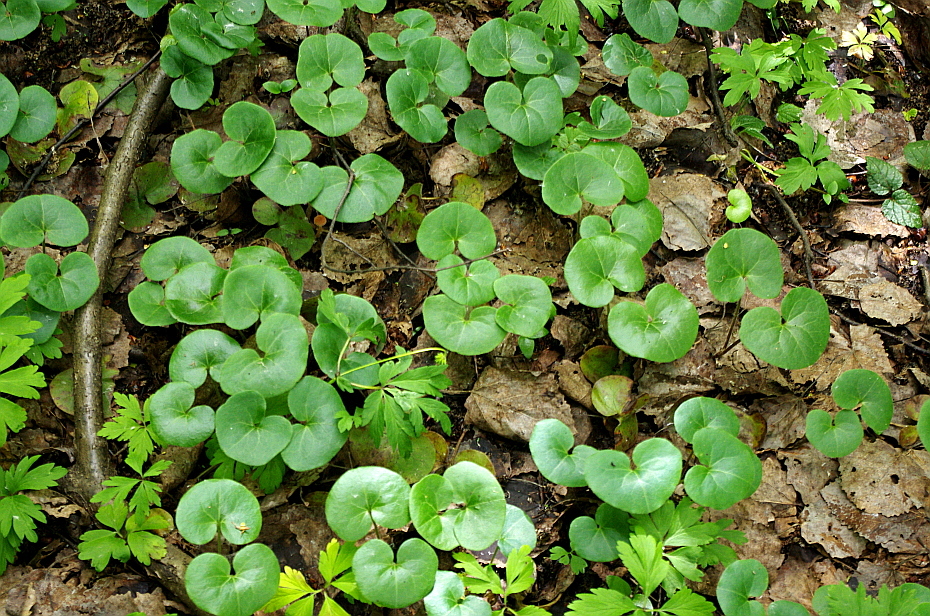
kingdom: Plantae
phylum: Tracheophyta
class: Magnoliopsida
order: Piperales
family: Aristolochiaceae
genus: Asarum
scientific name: Asarum europaeum
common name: Asarabacca
